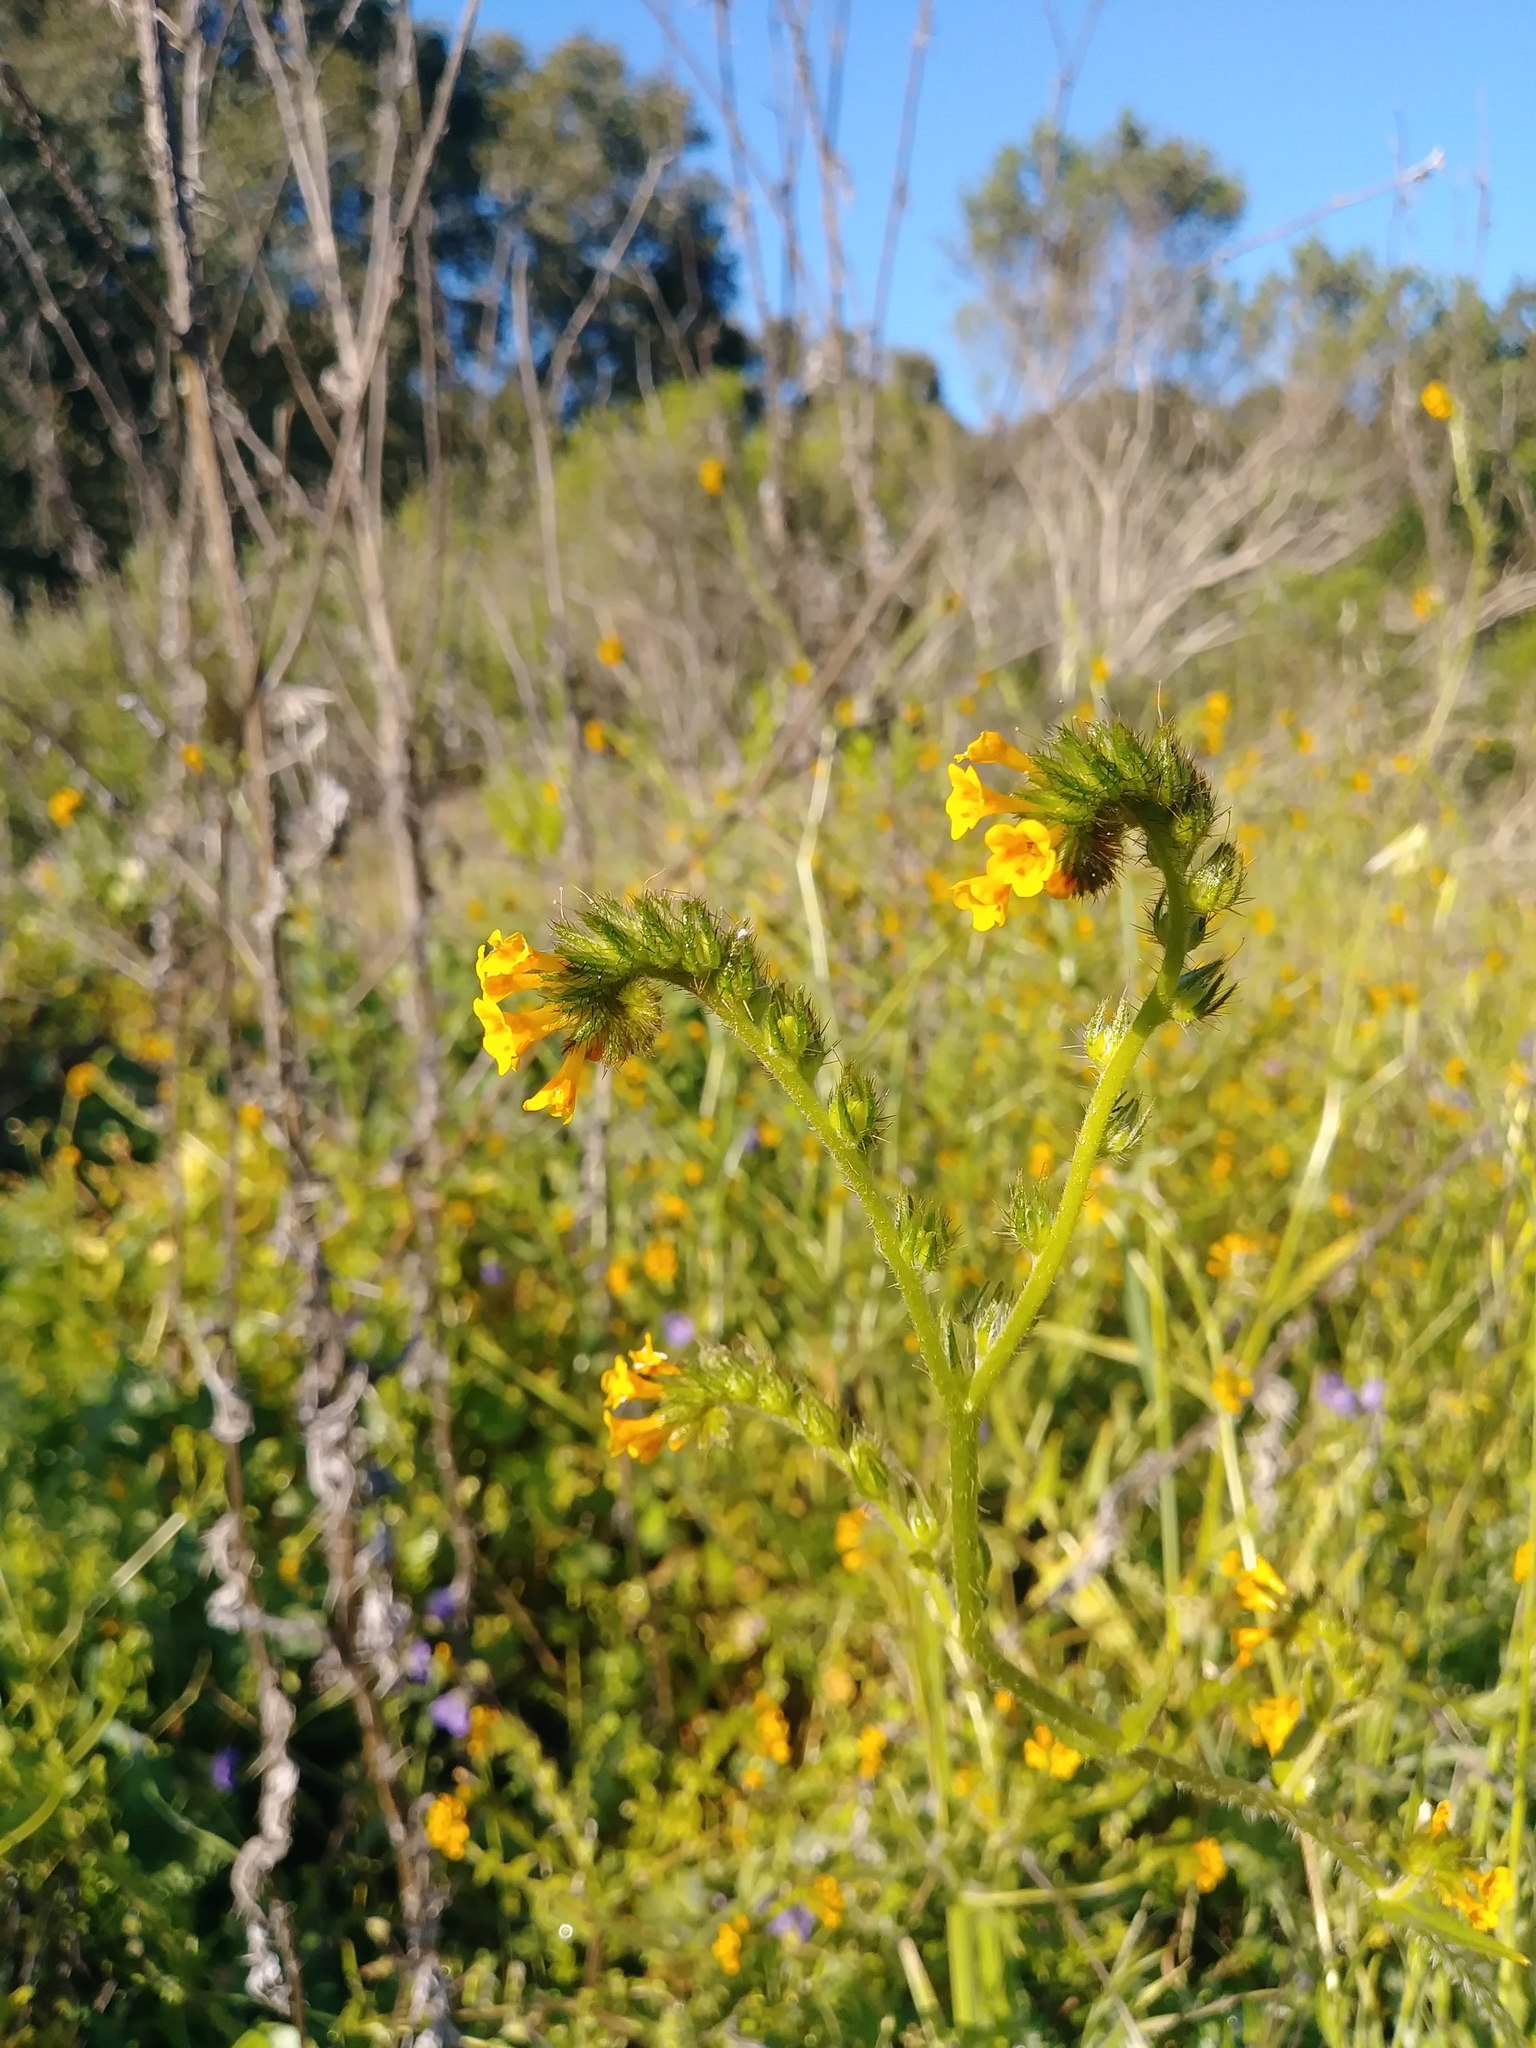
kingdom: Plantae
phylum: Tracheophyta
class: Magnoliopsida
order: Boraginales
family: Boraginaceae
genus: Amsinckia
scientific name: Amsinckia menziesii
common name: Menzies' fiddleneck
